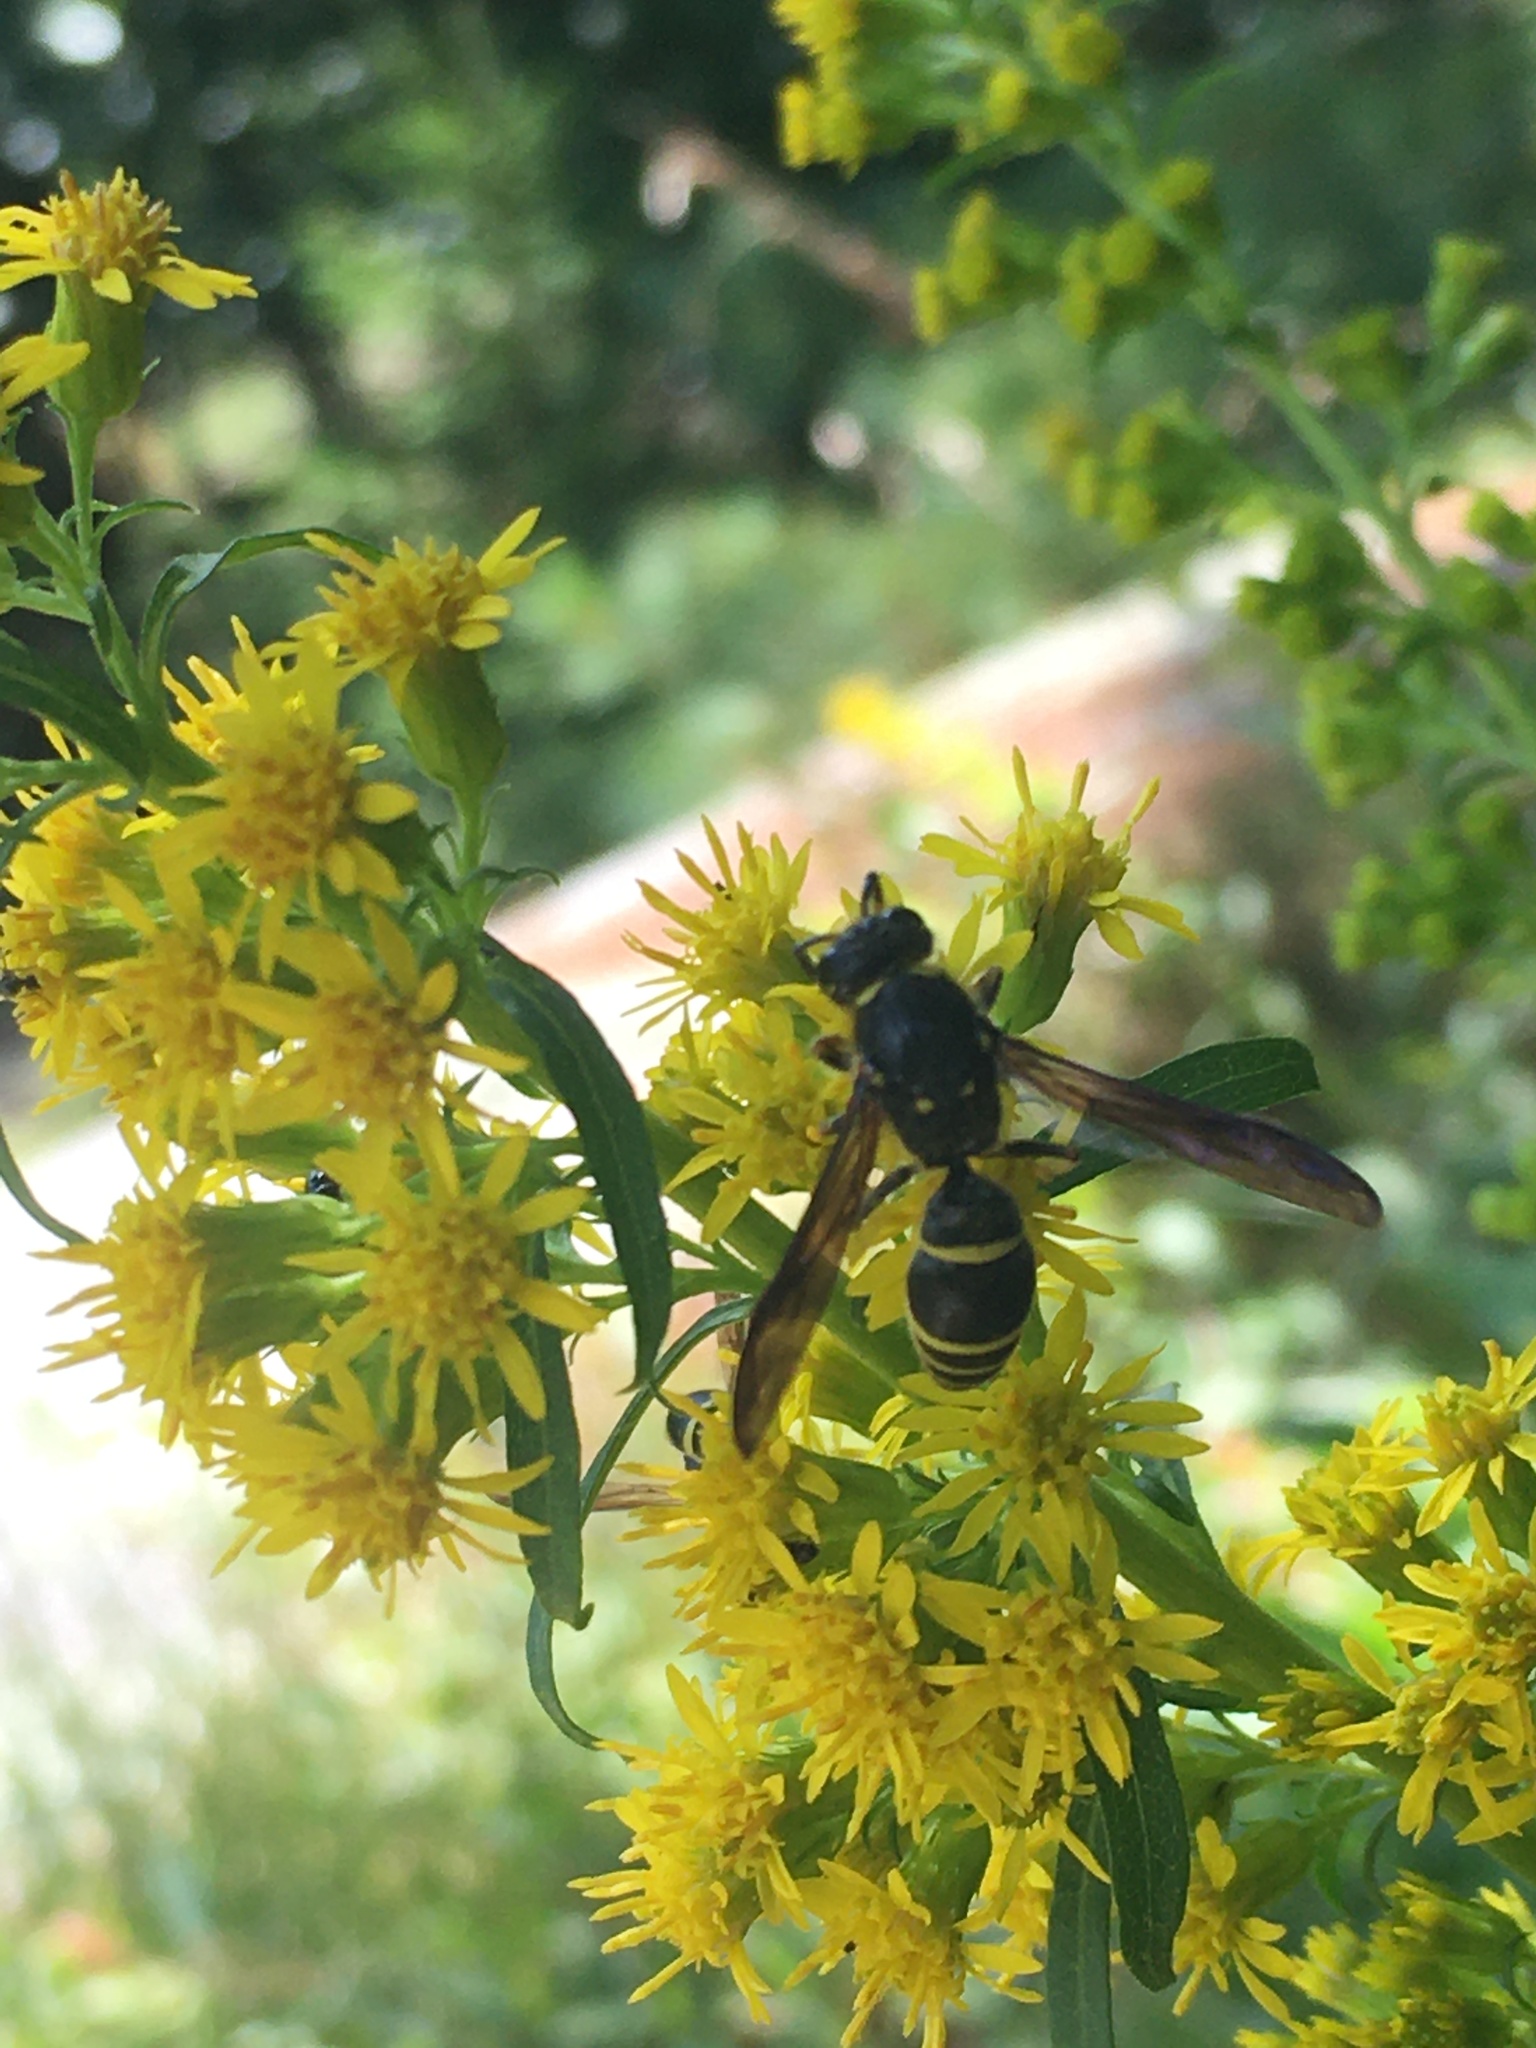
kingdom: Animalia
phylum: Arthropoda
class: Insecta
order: Hymenoptera
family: Vespidae
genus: Ancistrocerus
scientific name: Ancistrocerus
